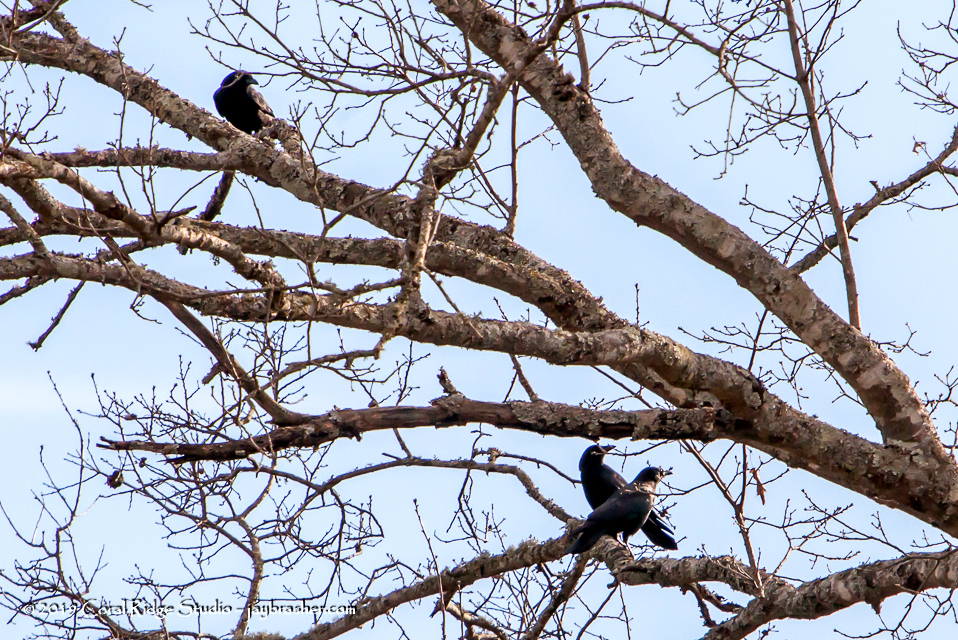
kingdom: Animalia
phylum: Chordata
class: Aves
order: Passeriformes
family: Corvidae
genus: Corvus
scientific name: Corvus brachyrhynchos
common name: American crow
